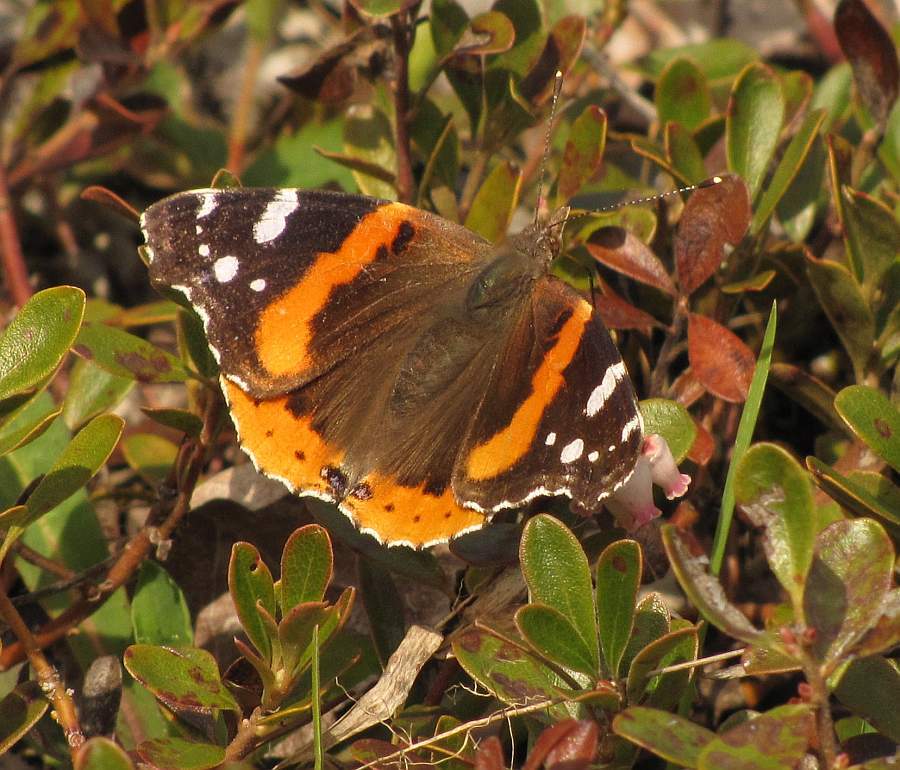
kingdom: Animalia
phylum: Arthropoda
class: Insecta
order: Lepidoptera
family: Nymphalidae
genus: Vanessa
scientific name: Vanessa atalanta
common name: Red admiral
